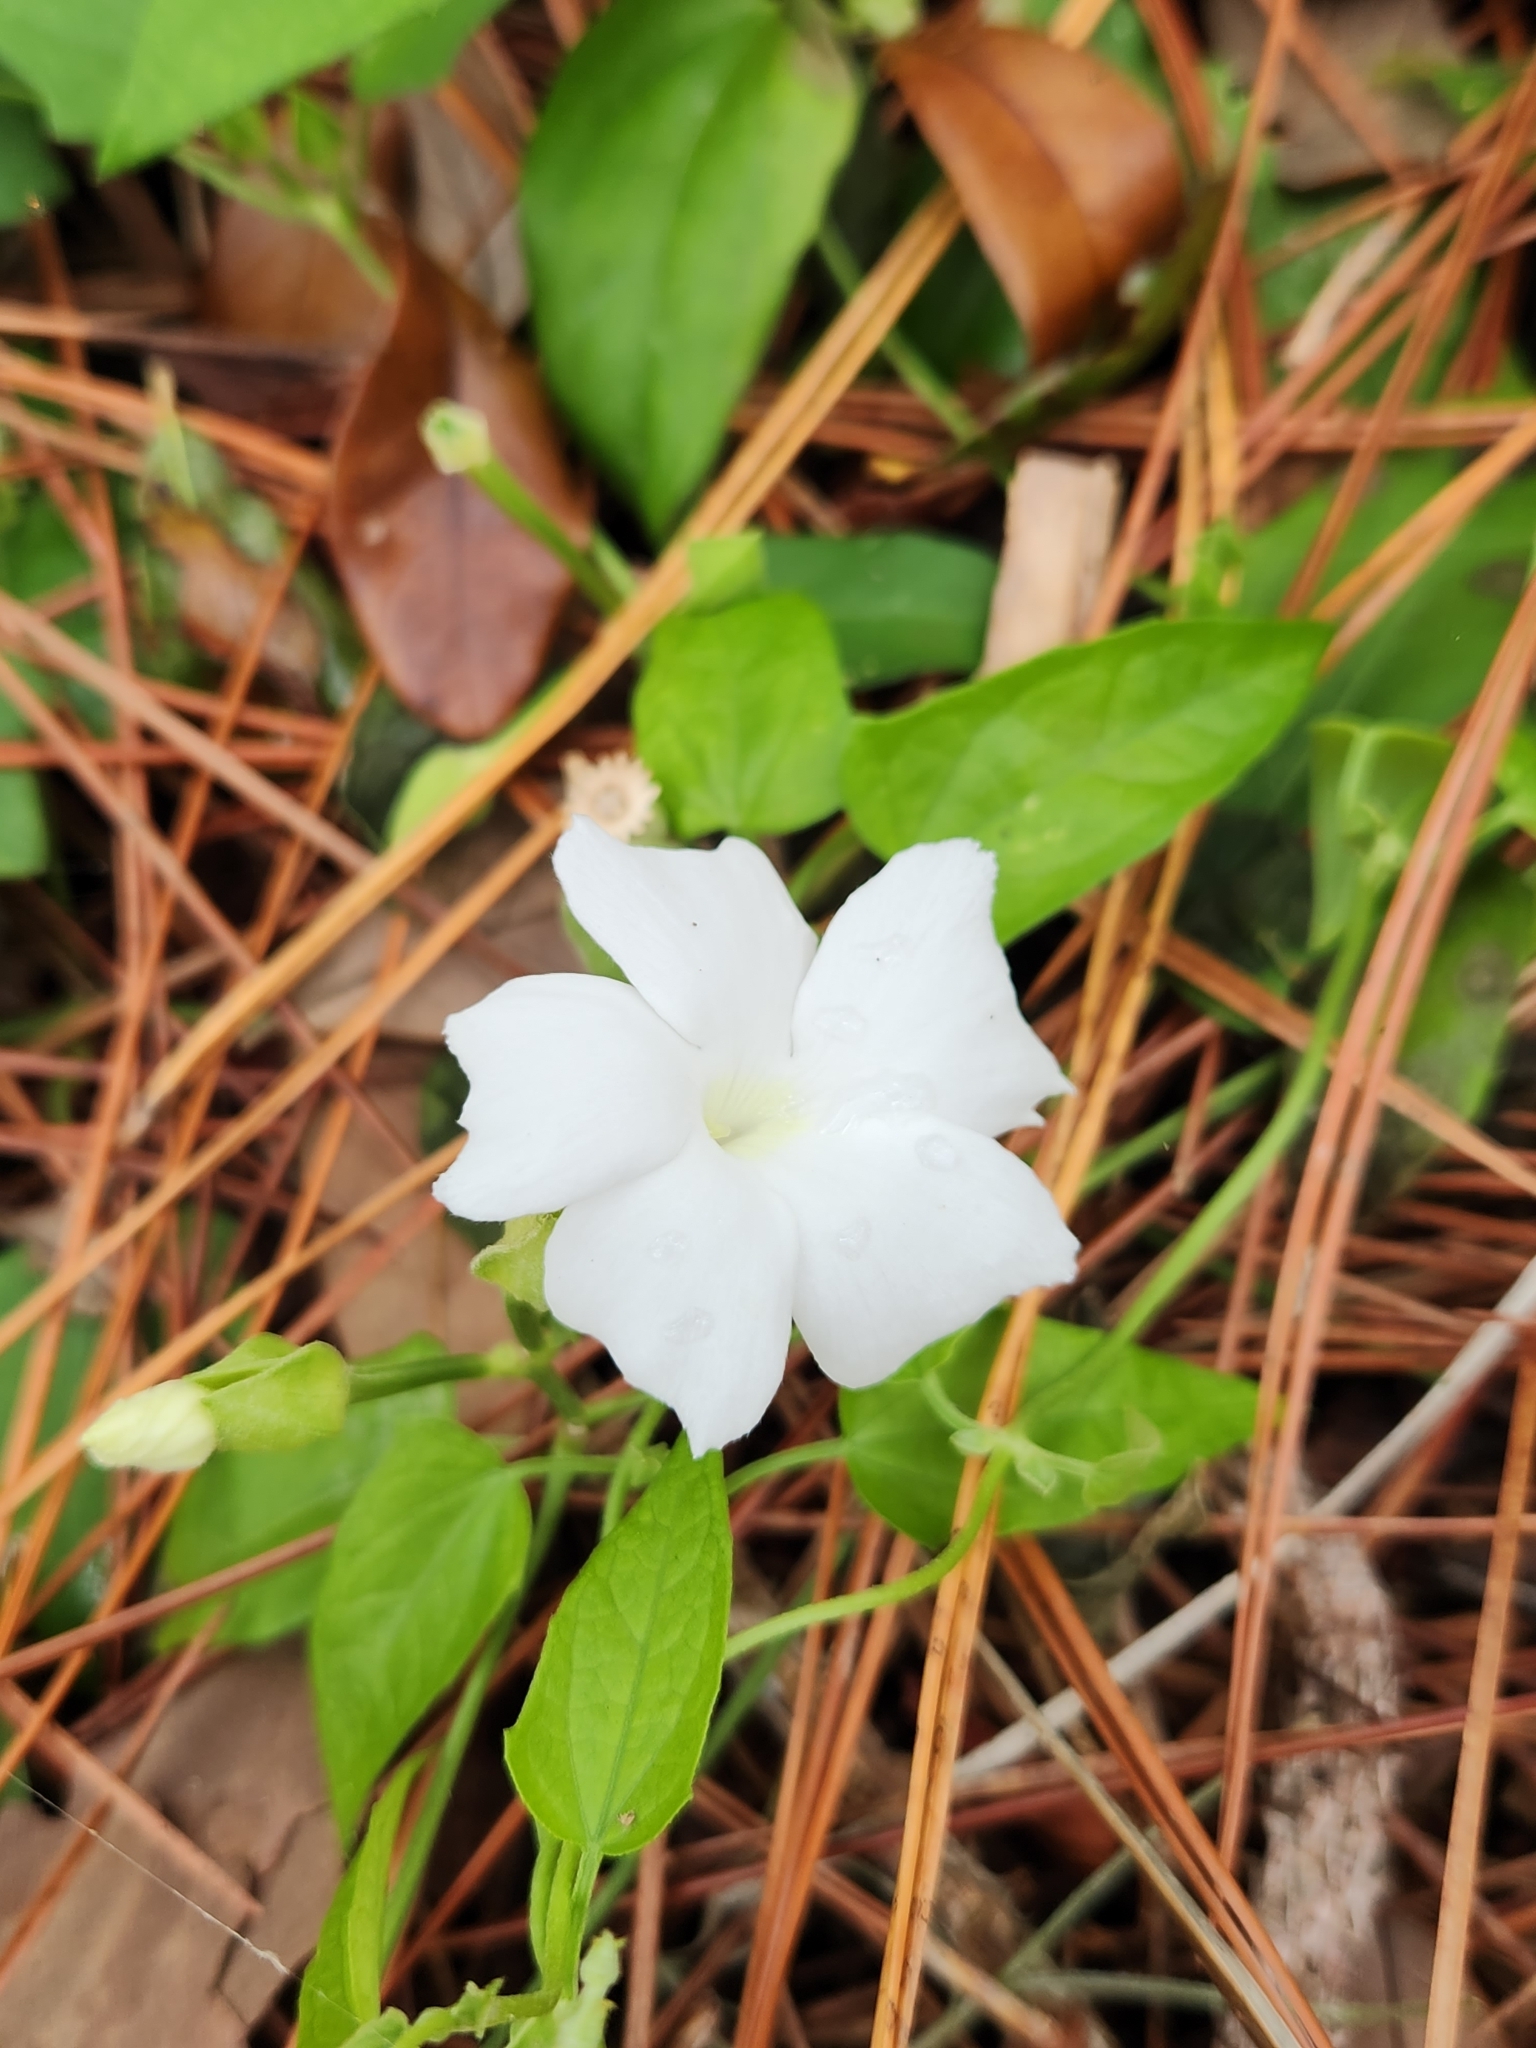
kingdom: Plantae
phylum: Tracheophyta
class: Magnoliopsida
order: Lamiales
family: Acanthaceae
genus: Thunbergia
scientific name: Thunbergia fragrans
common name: Whitelady
